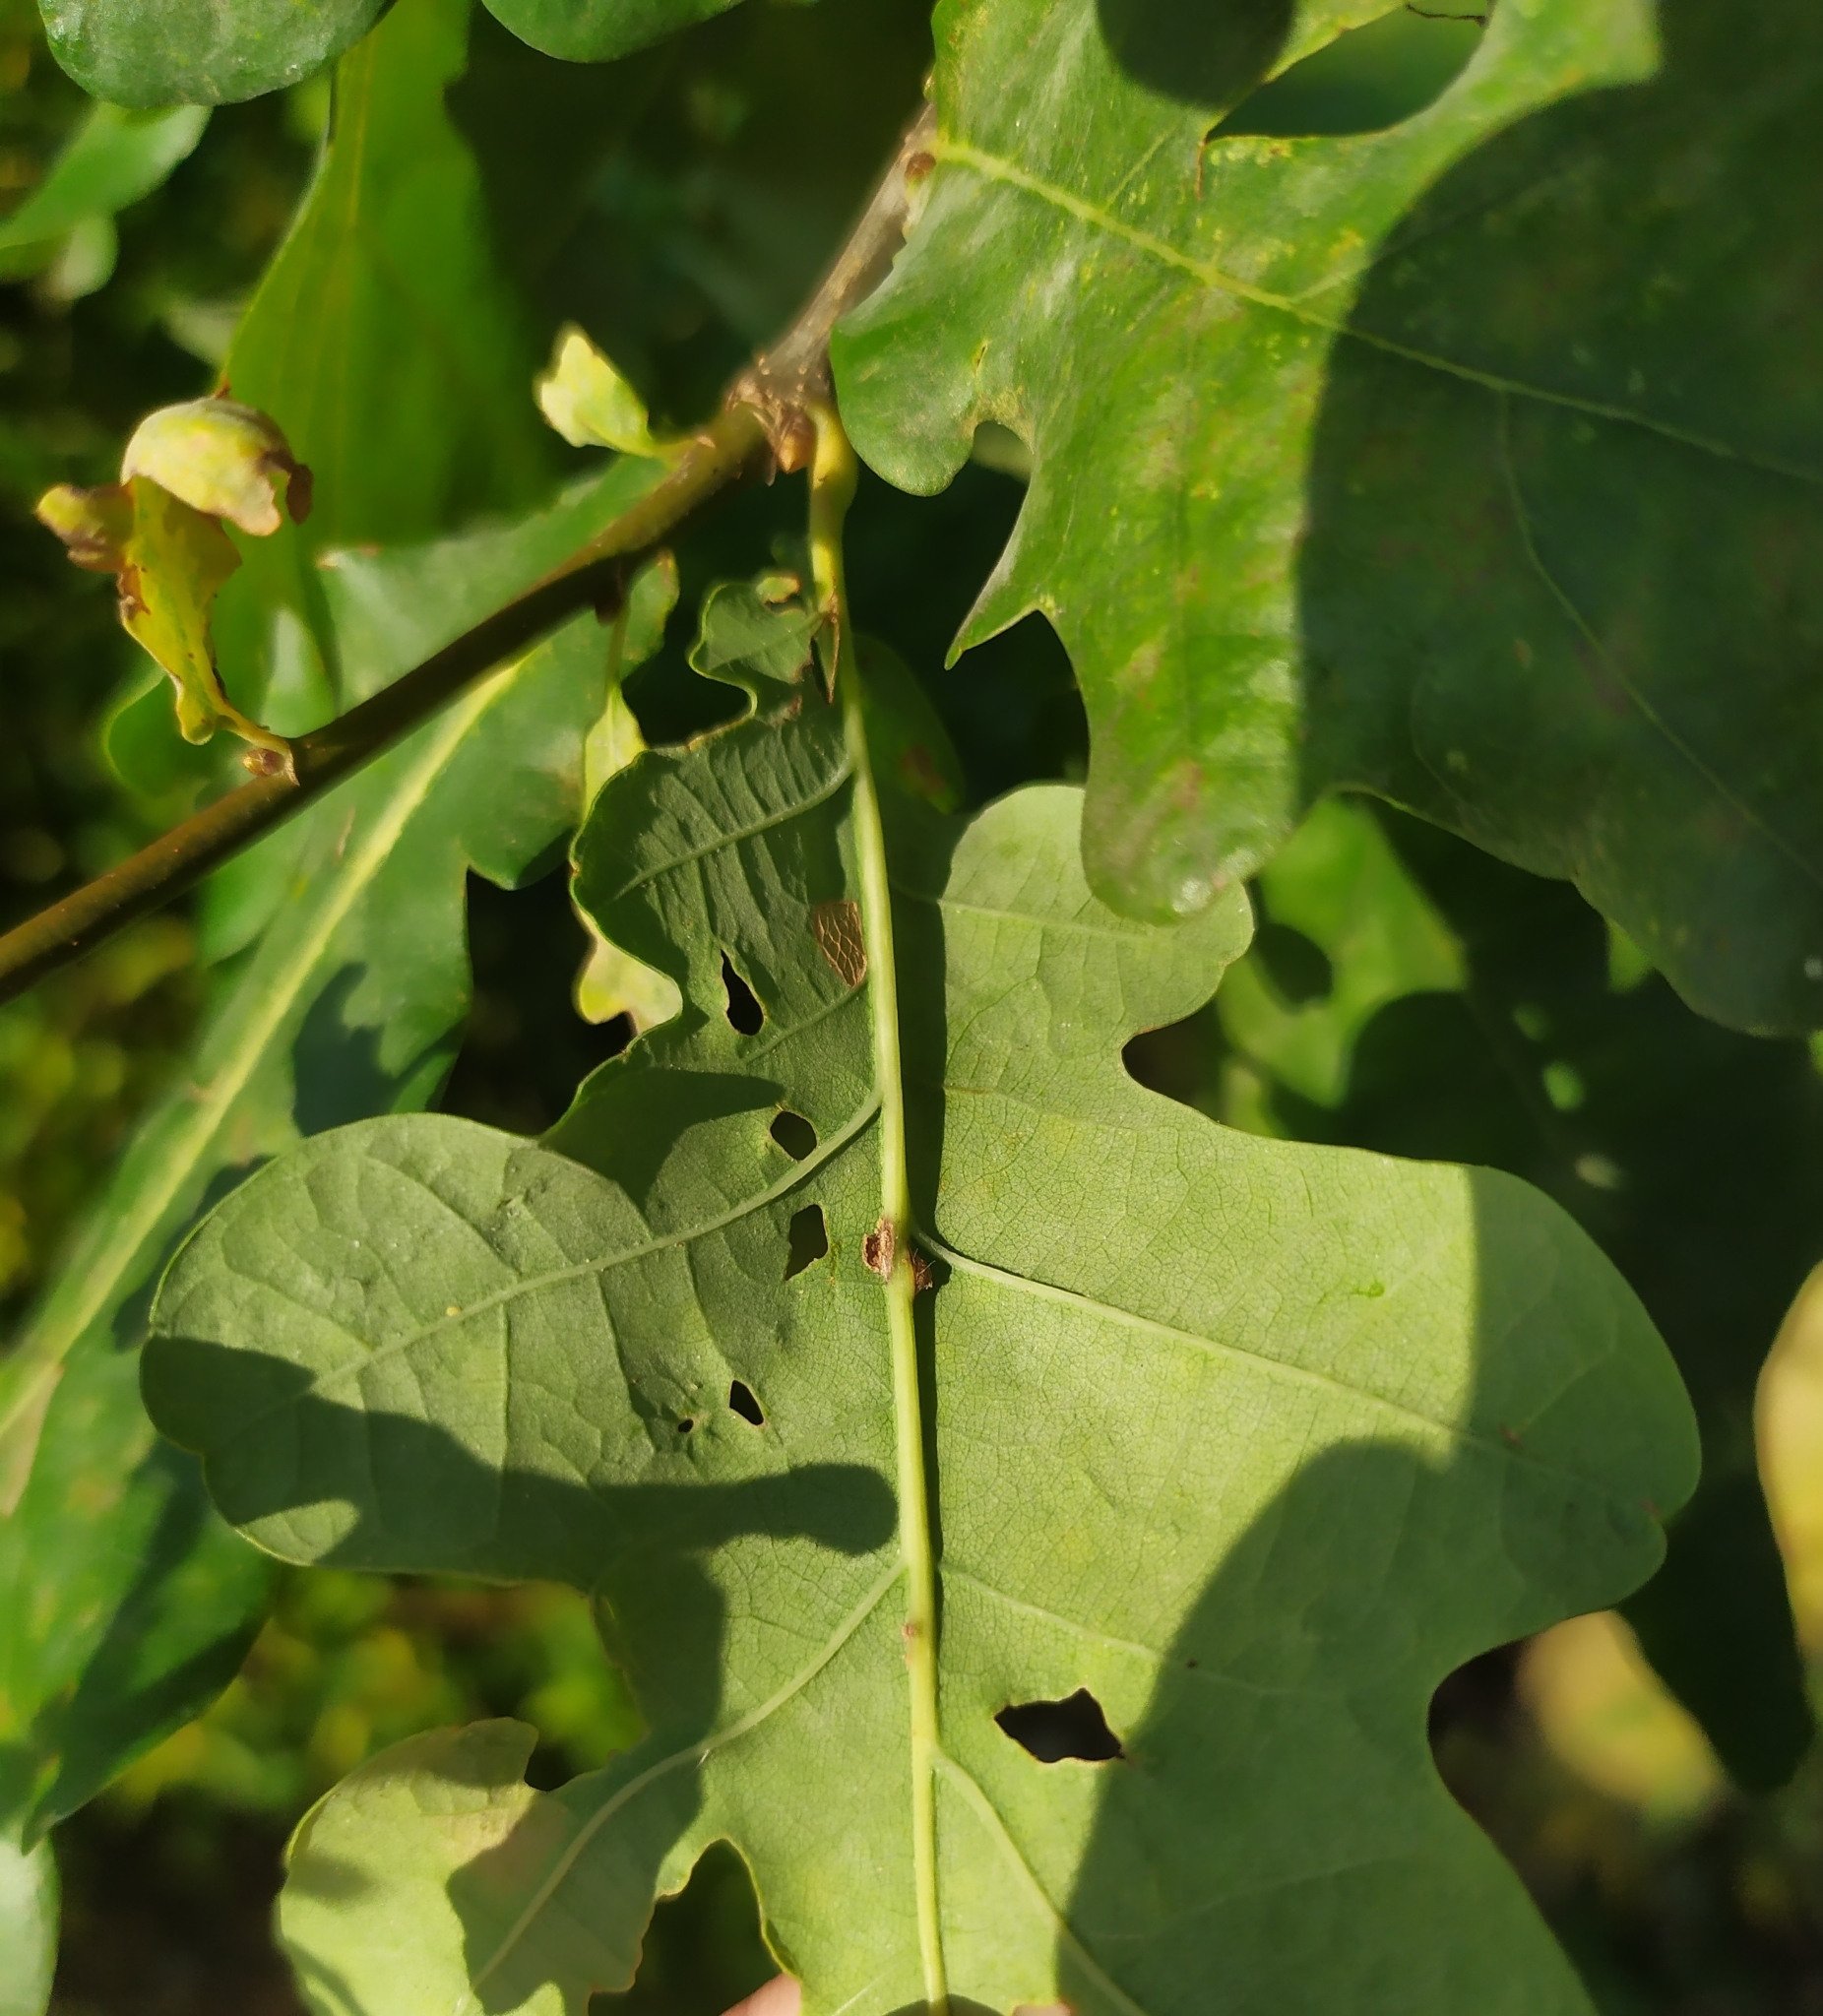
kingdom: Animalia
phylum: Arthropoda
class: Insecta
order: Hymenoptera
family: Cynipidae
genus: Neuroterus
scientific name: Neuroterus anthracinus
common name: Oyster gall
